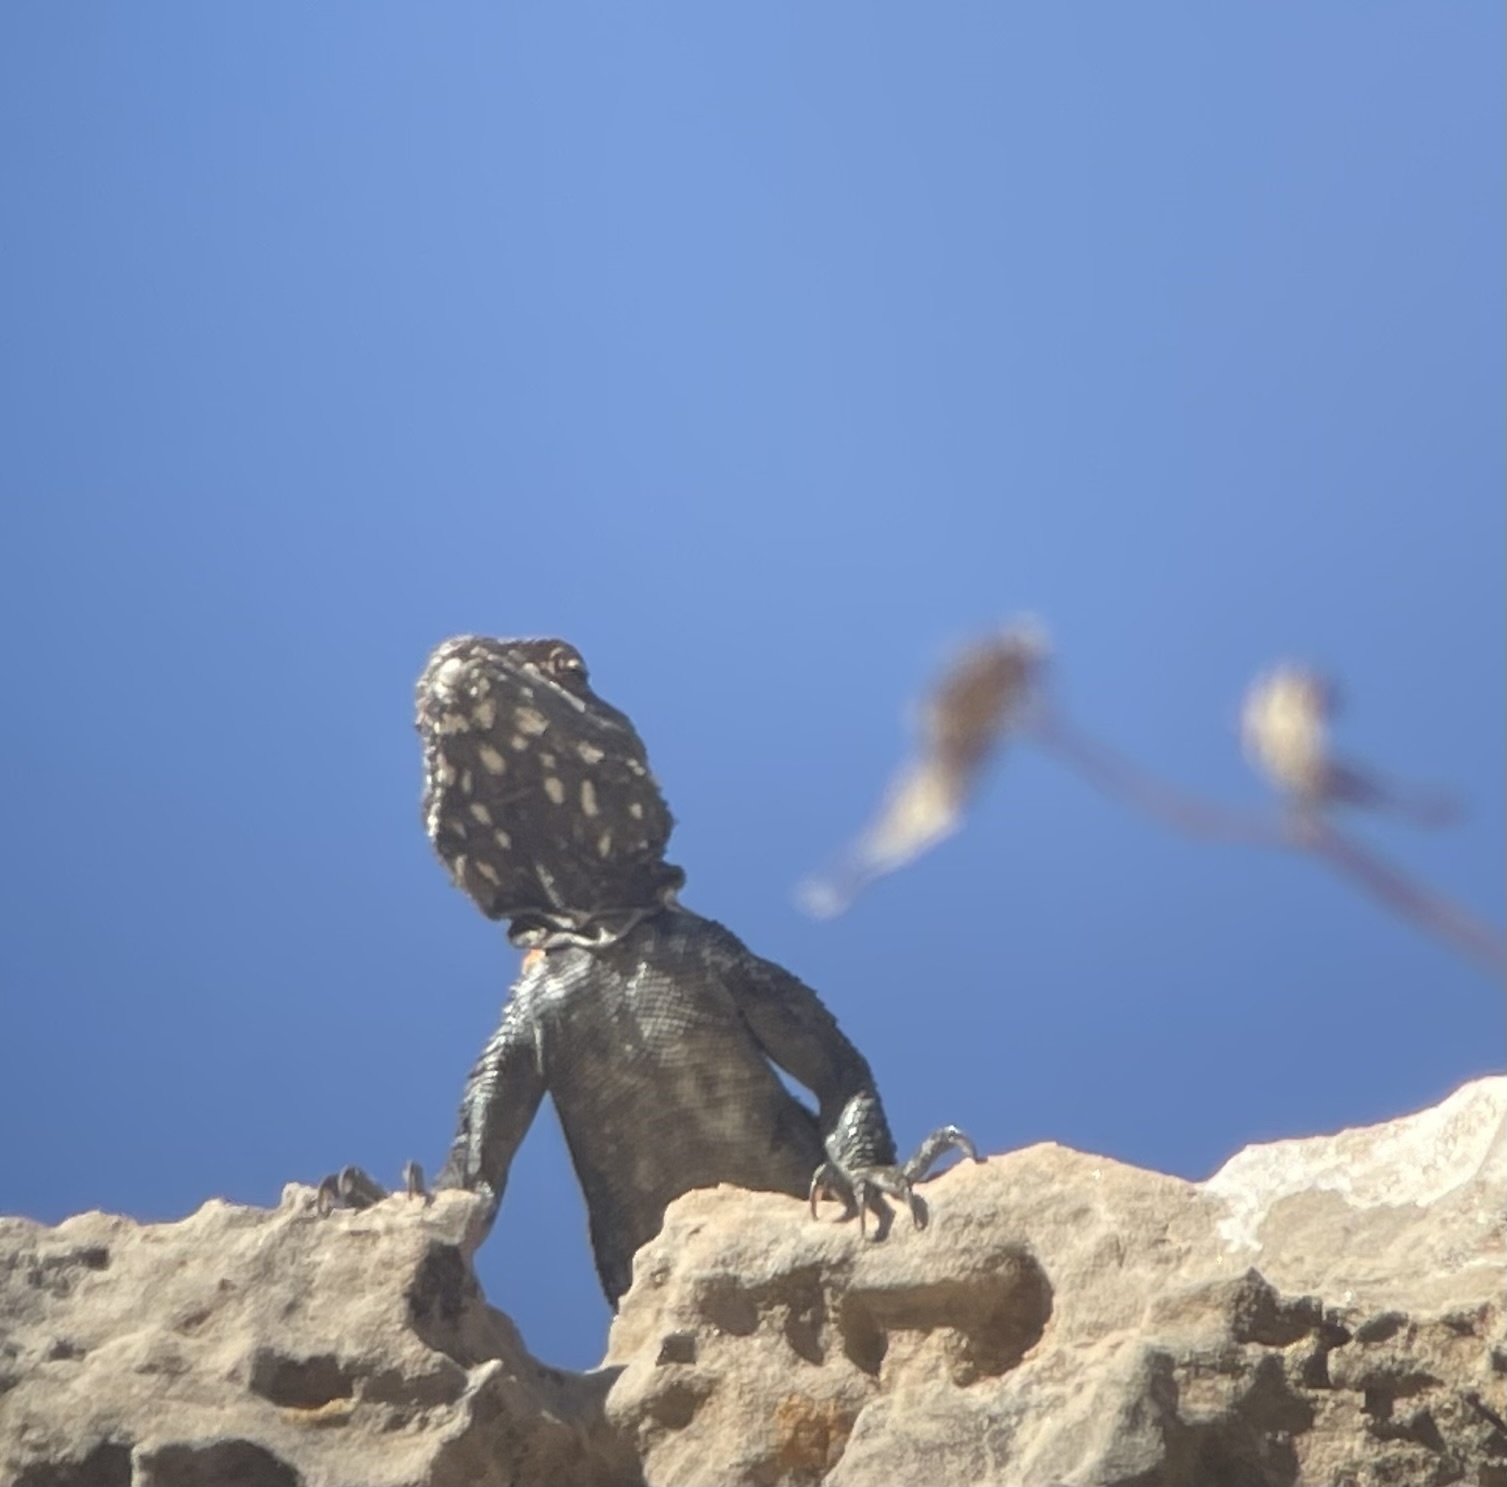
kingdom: Animalia
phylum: Chordata
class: Squamata
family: Agamidae
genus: Laudakia
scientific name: Laudakia vulgaris
